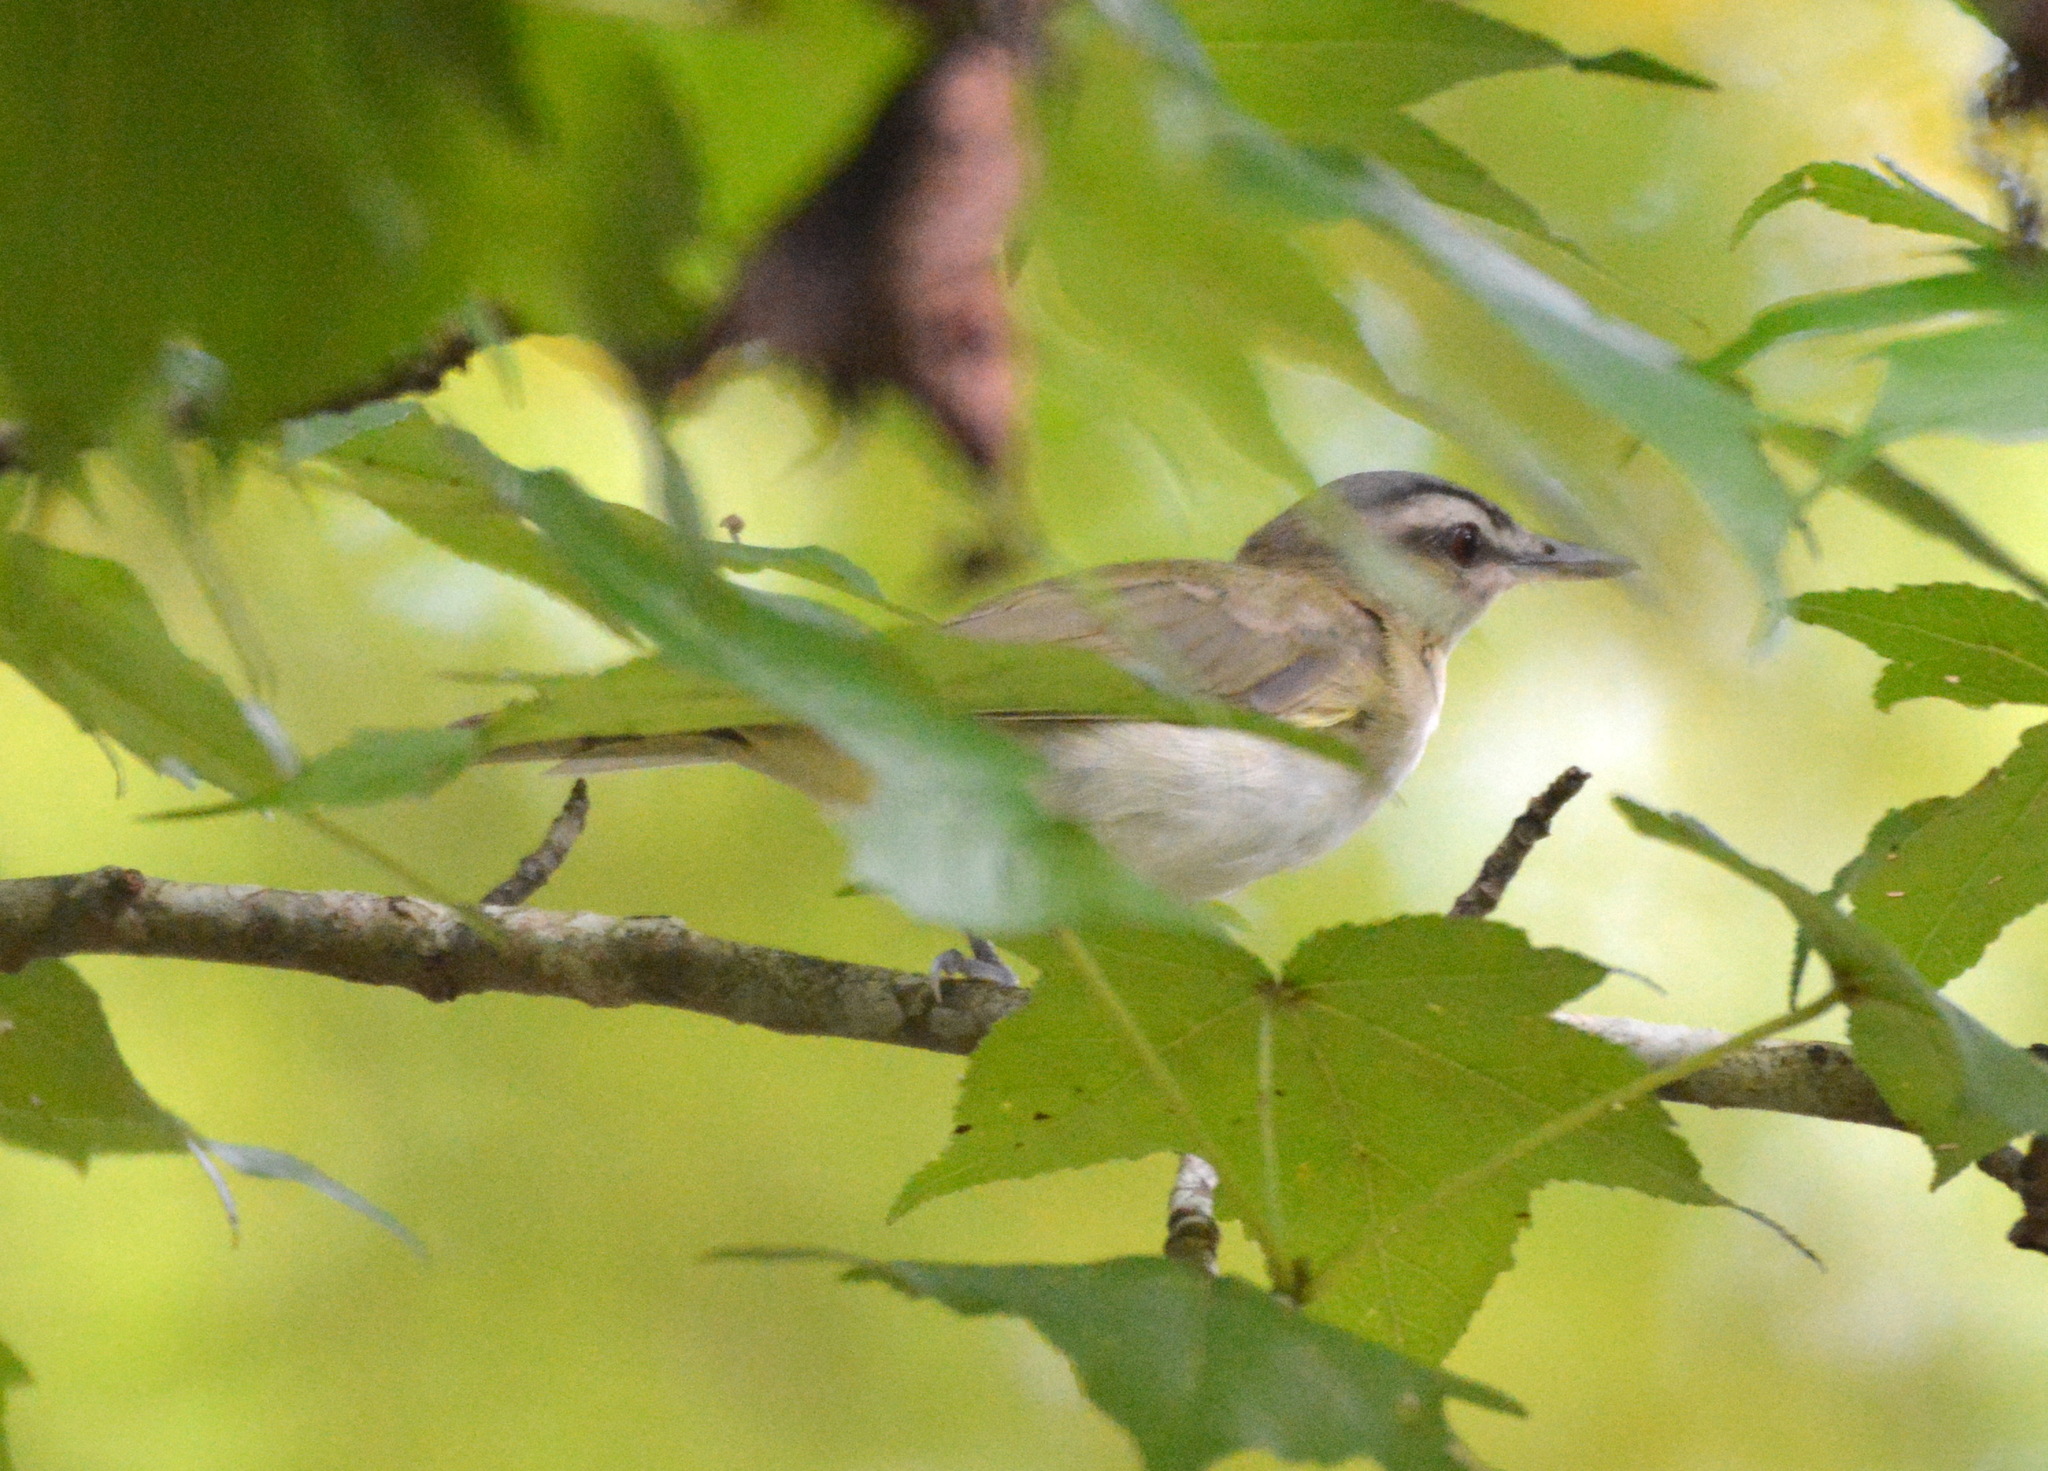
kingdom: Animalia
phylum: Chordata
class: Aves
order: Passeriformes
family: Vireonidae
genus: Vireo
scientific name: Vireo olivaceus
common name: Red-eyed vireo
